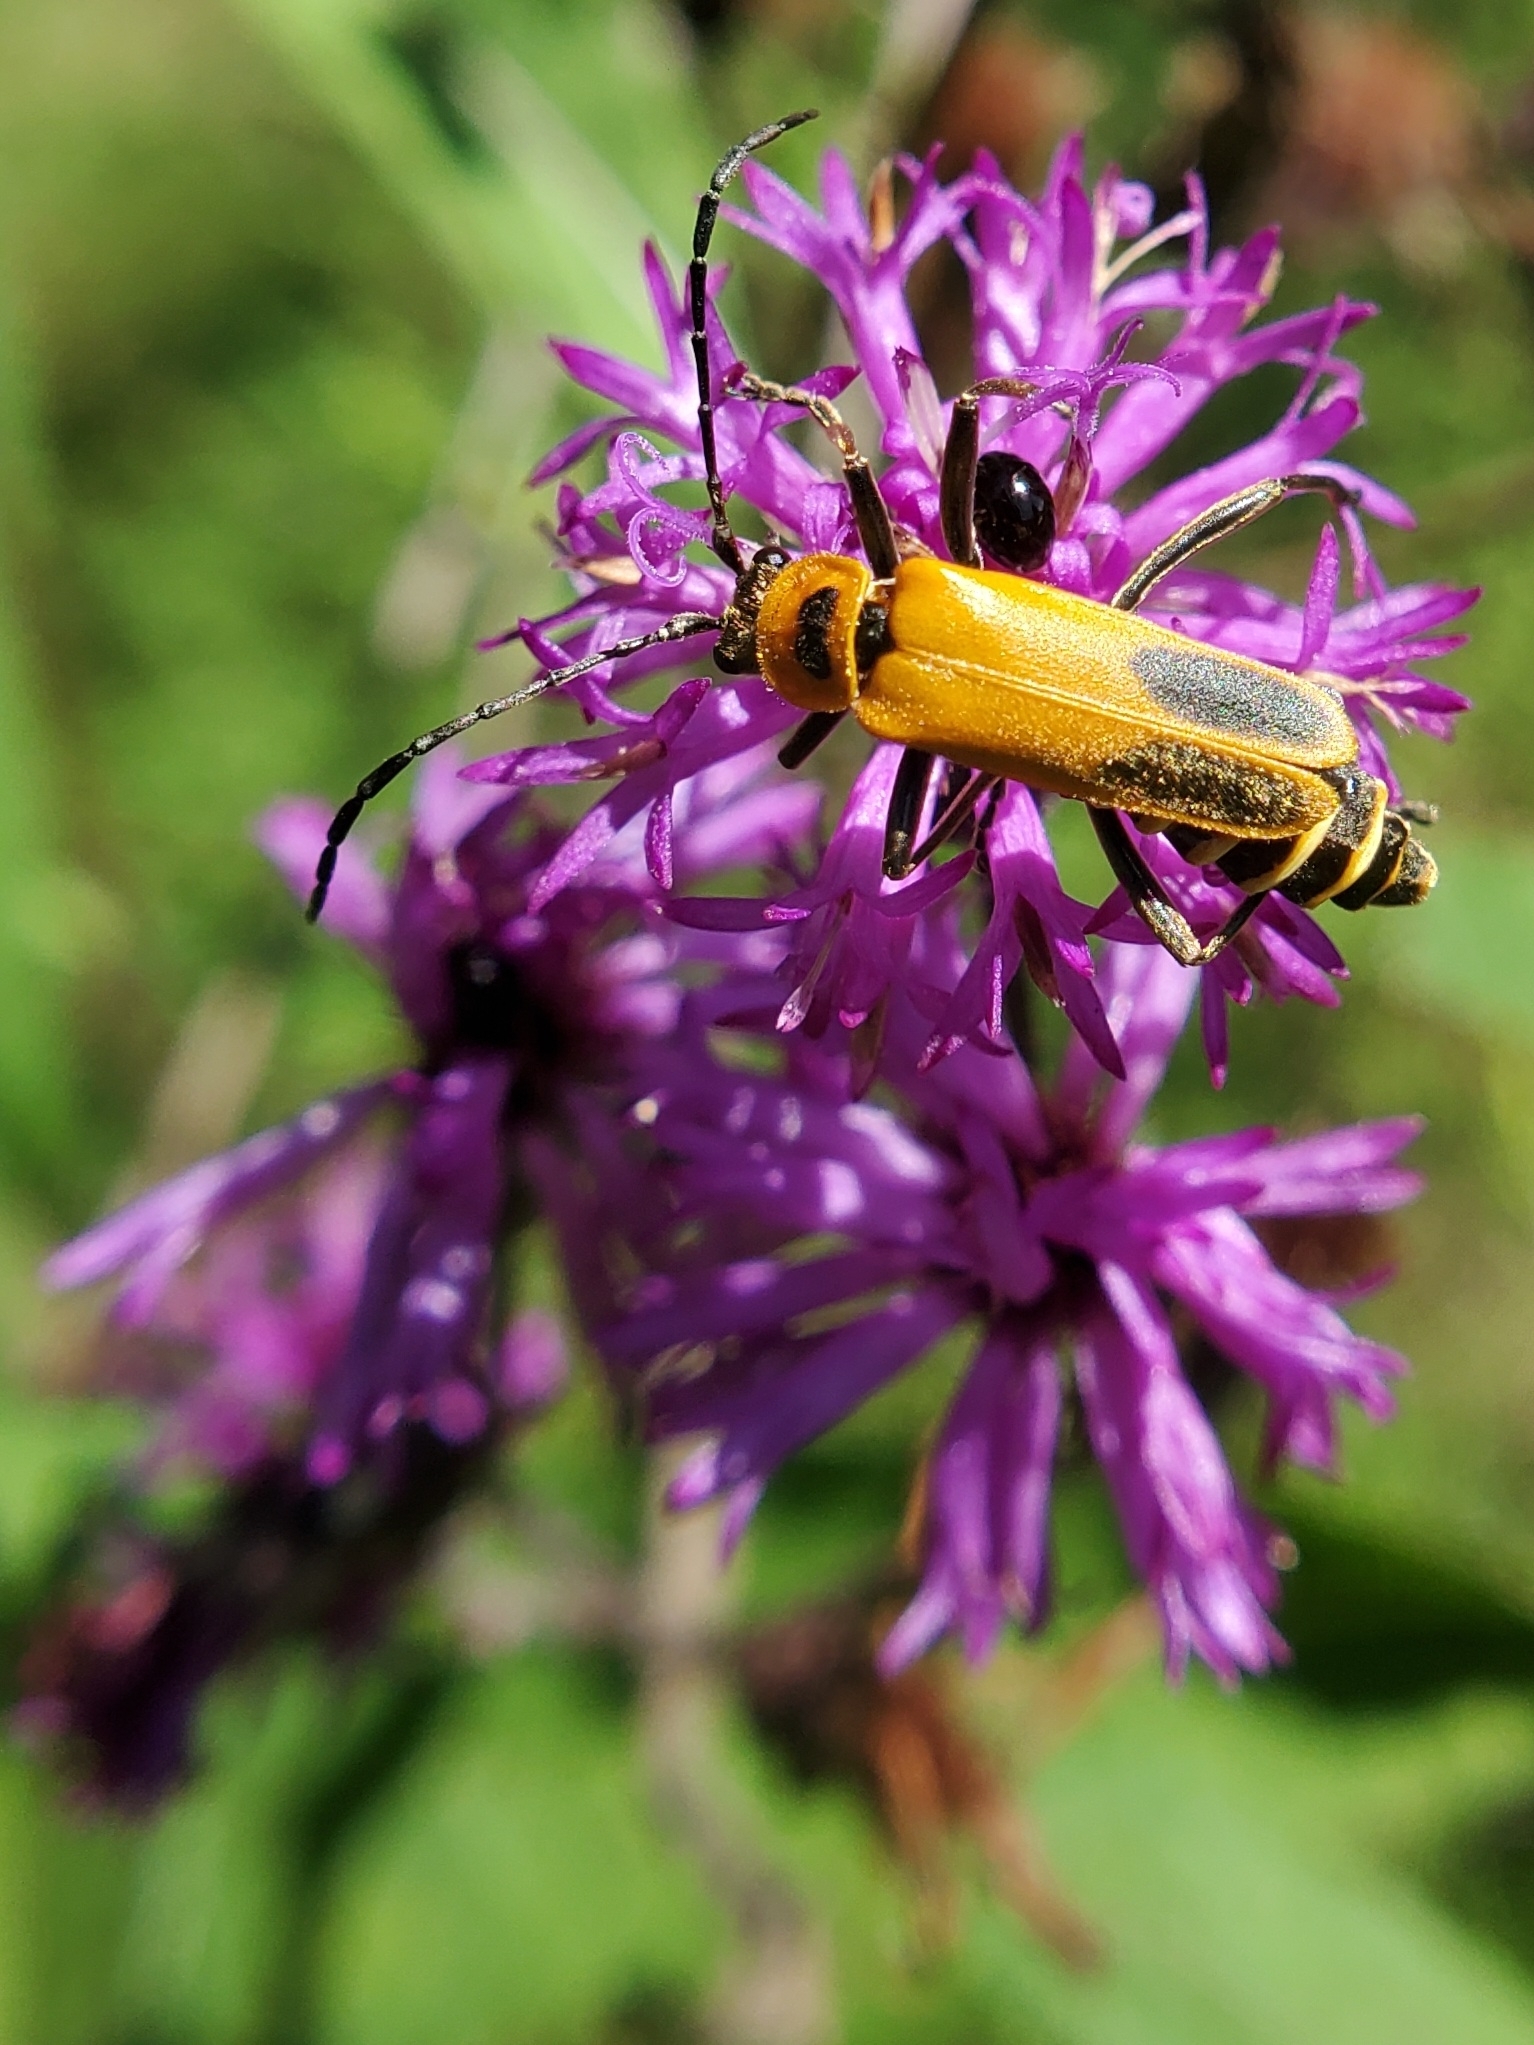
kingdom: Animalia
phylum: Arthropoda
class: Insecta
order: Coleoptera
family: Cantharidae
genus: Chauliognathus
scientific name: Chauliognathus pensylvanicus
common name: Goldenrod soldier beetle
